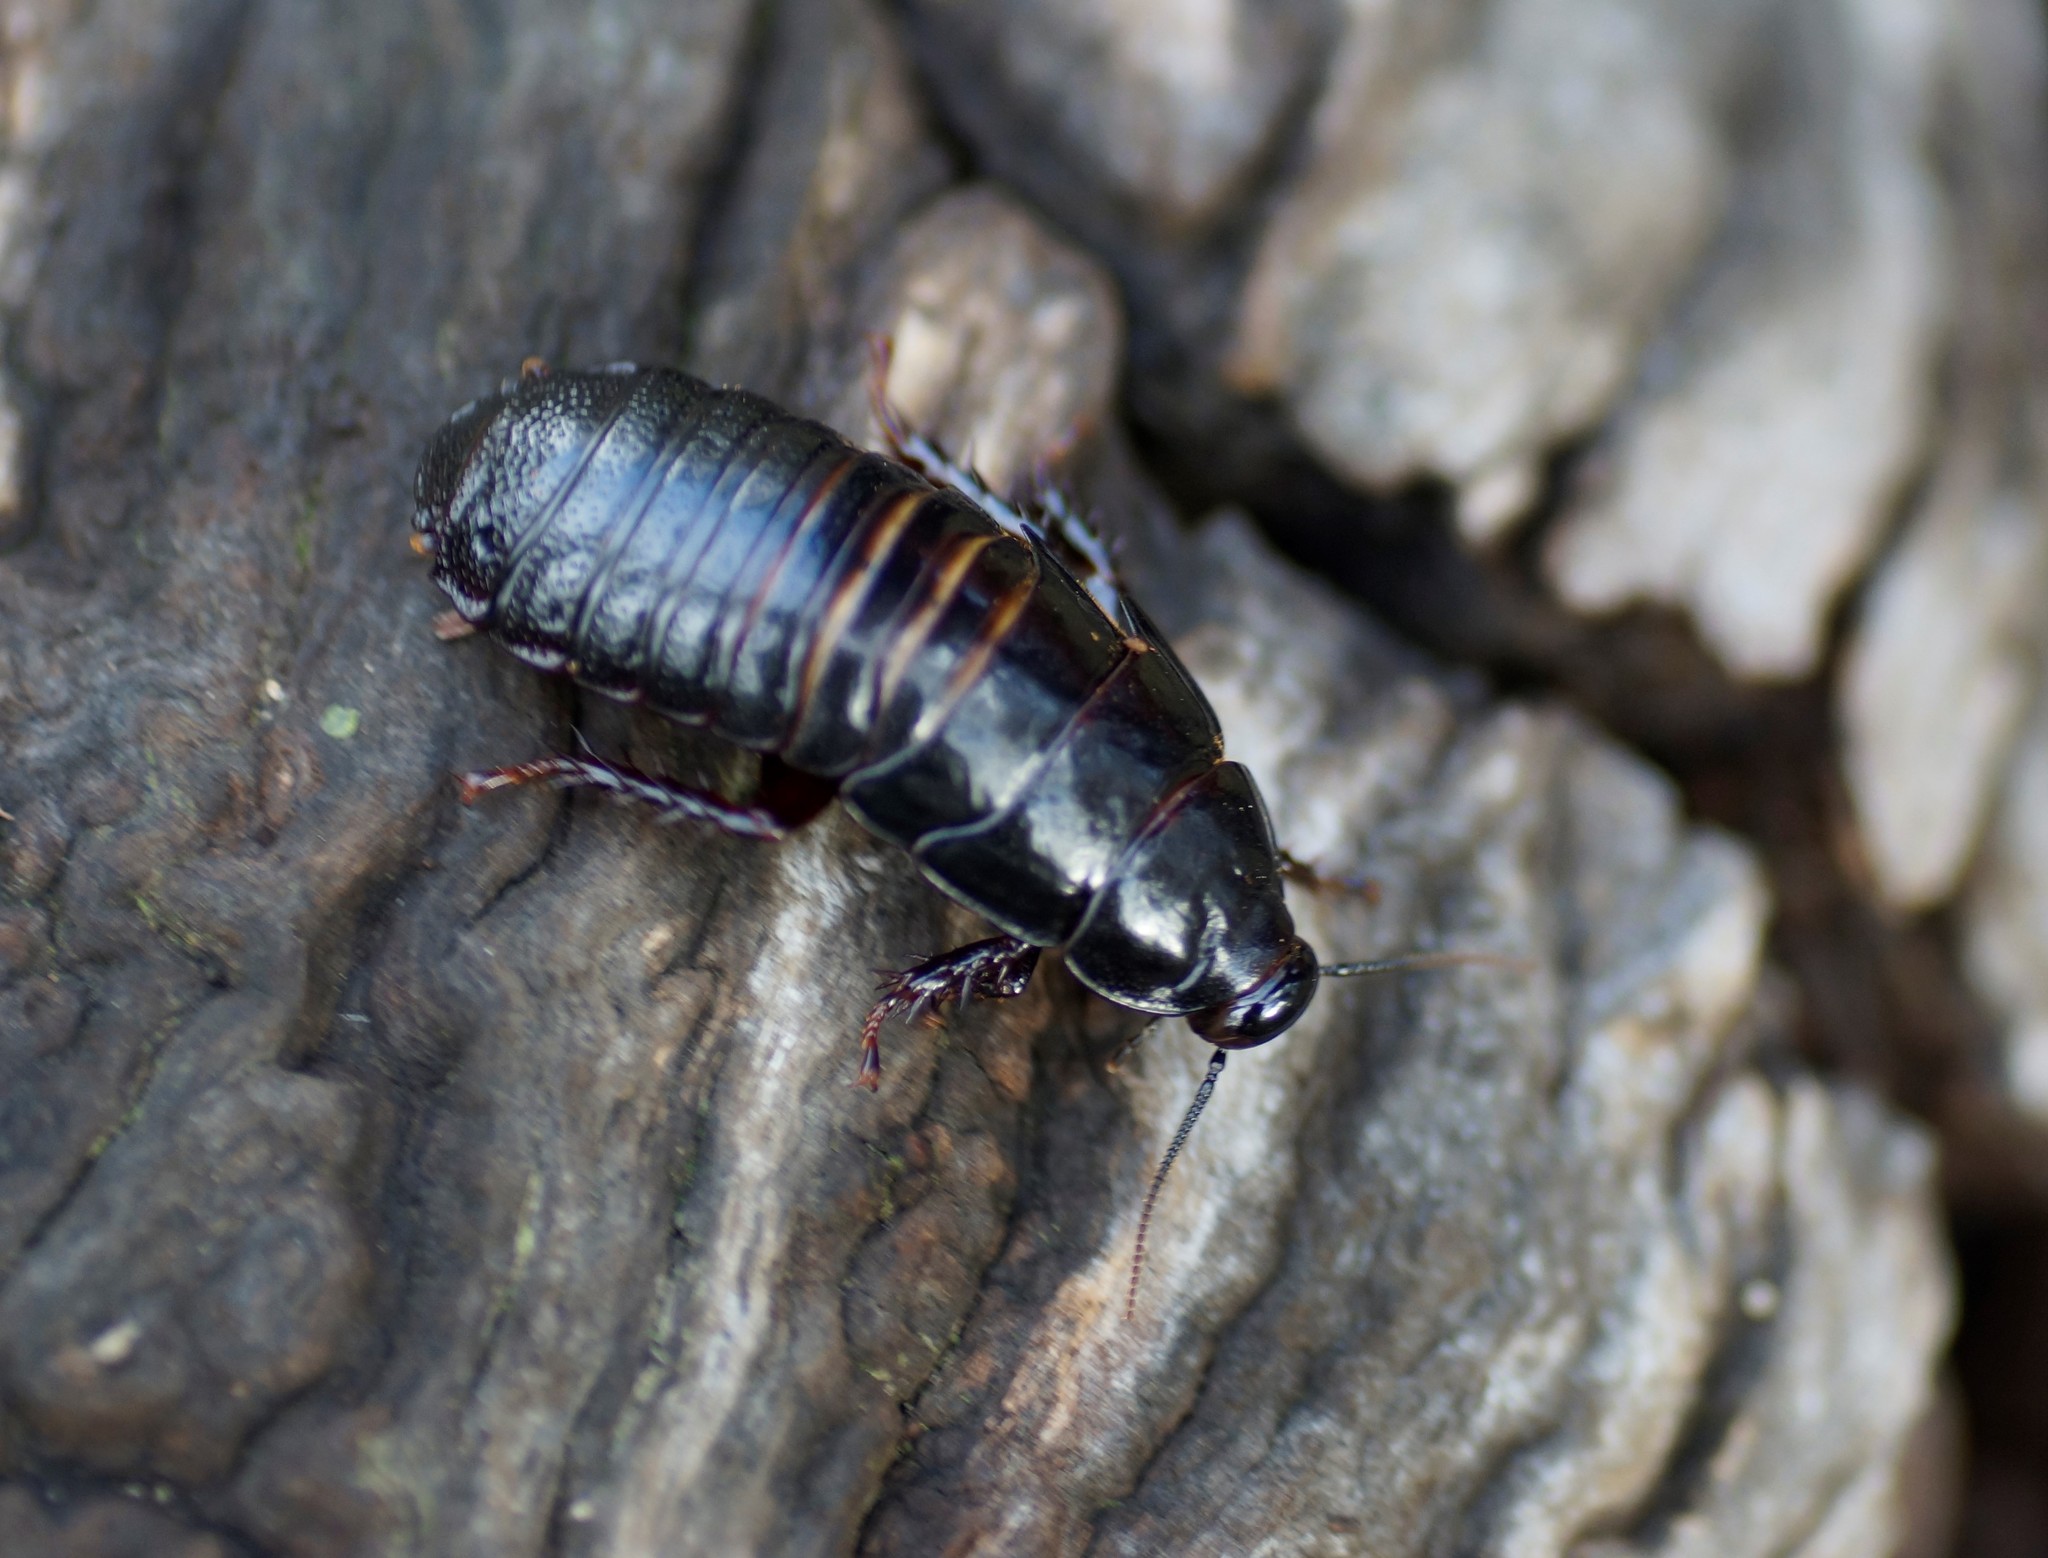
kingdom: Animalia
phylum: Arthropoda
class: Insecta
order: Blattodea
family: Blaberidae
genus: Panesthia
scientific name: Panesthia australis
